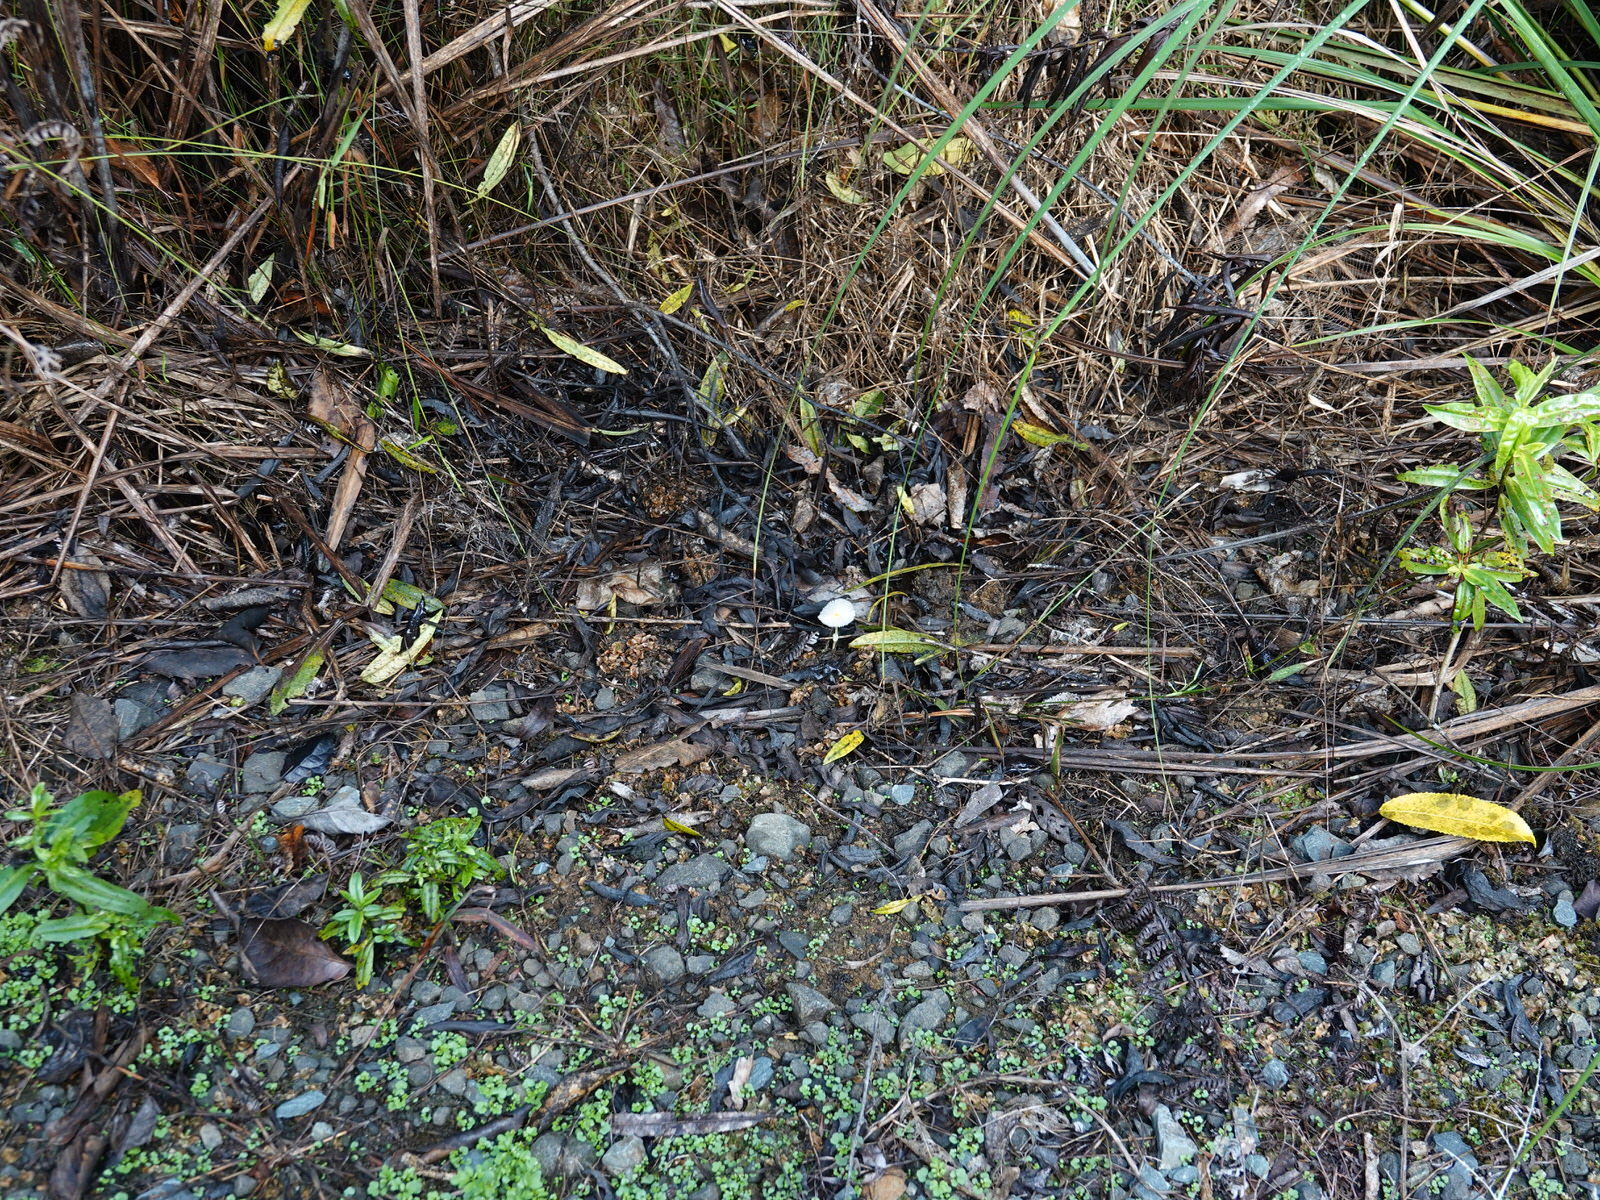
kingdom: Fungi
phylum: Basidiomycota
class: Agaricomycetes
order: Agaricales
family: Agaricaceae
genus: Leucocoprinus
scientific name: Leucocoprinus fragilissimus
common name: Fragile dapperling
